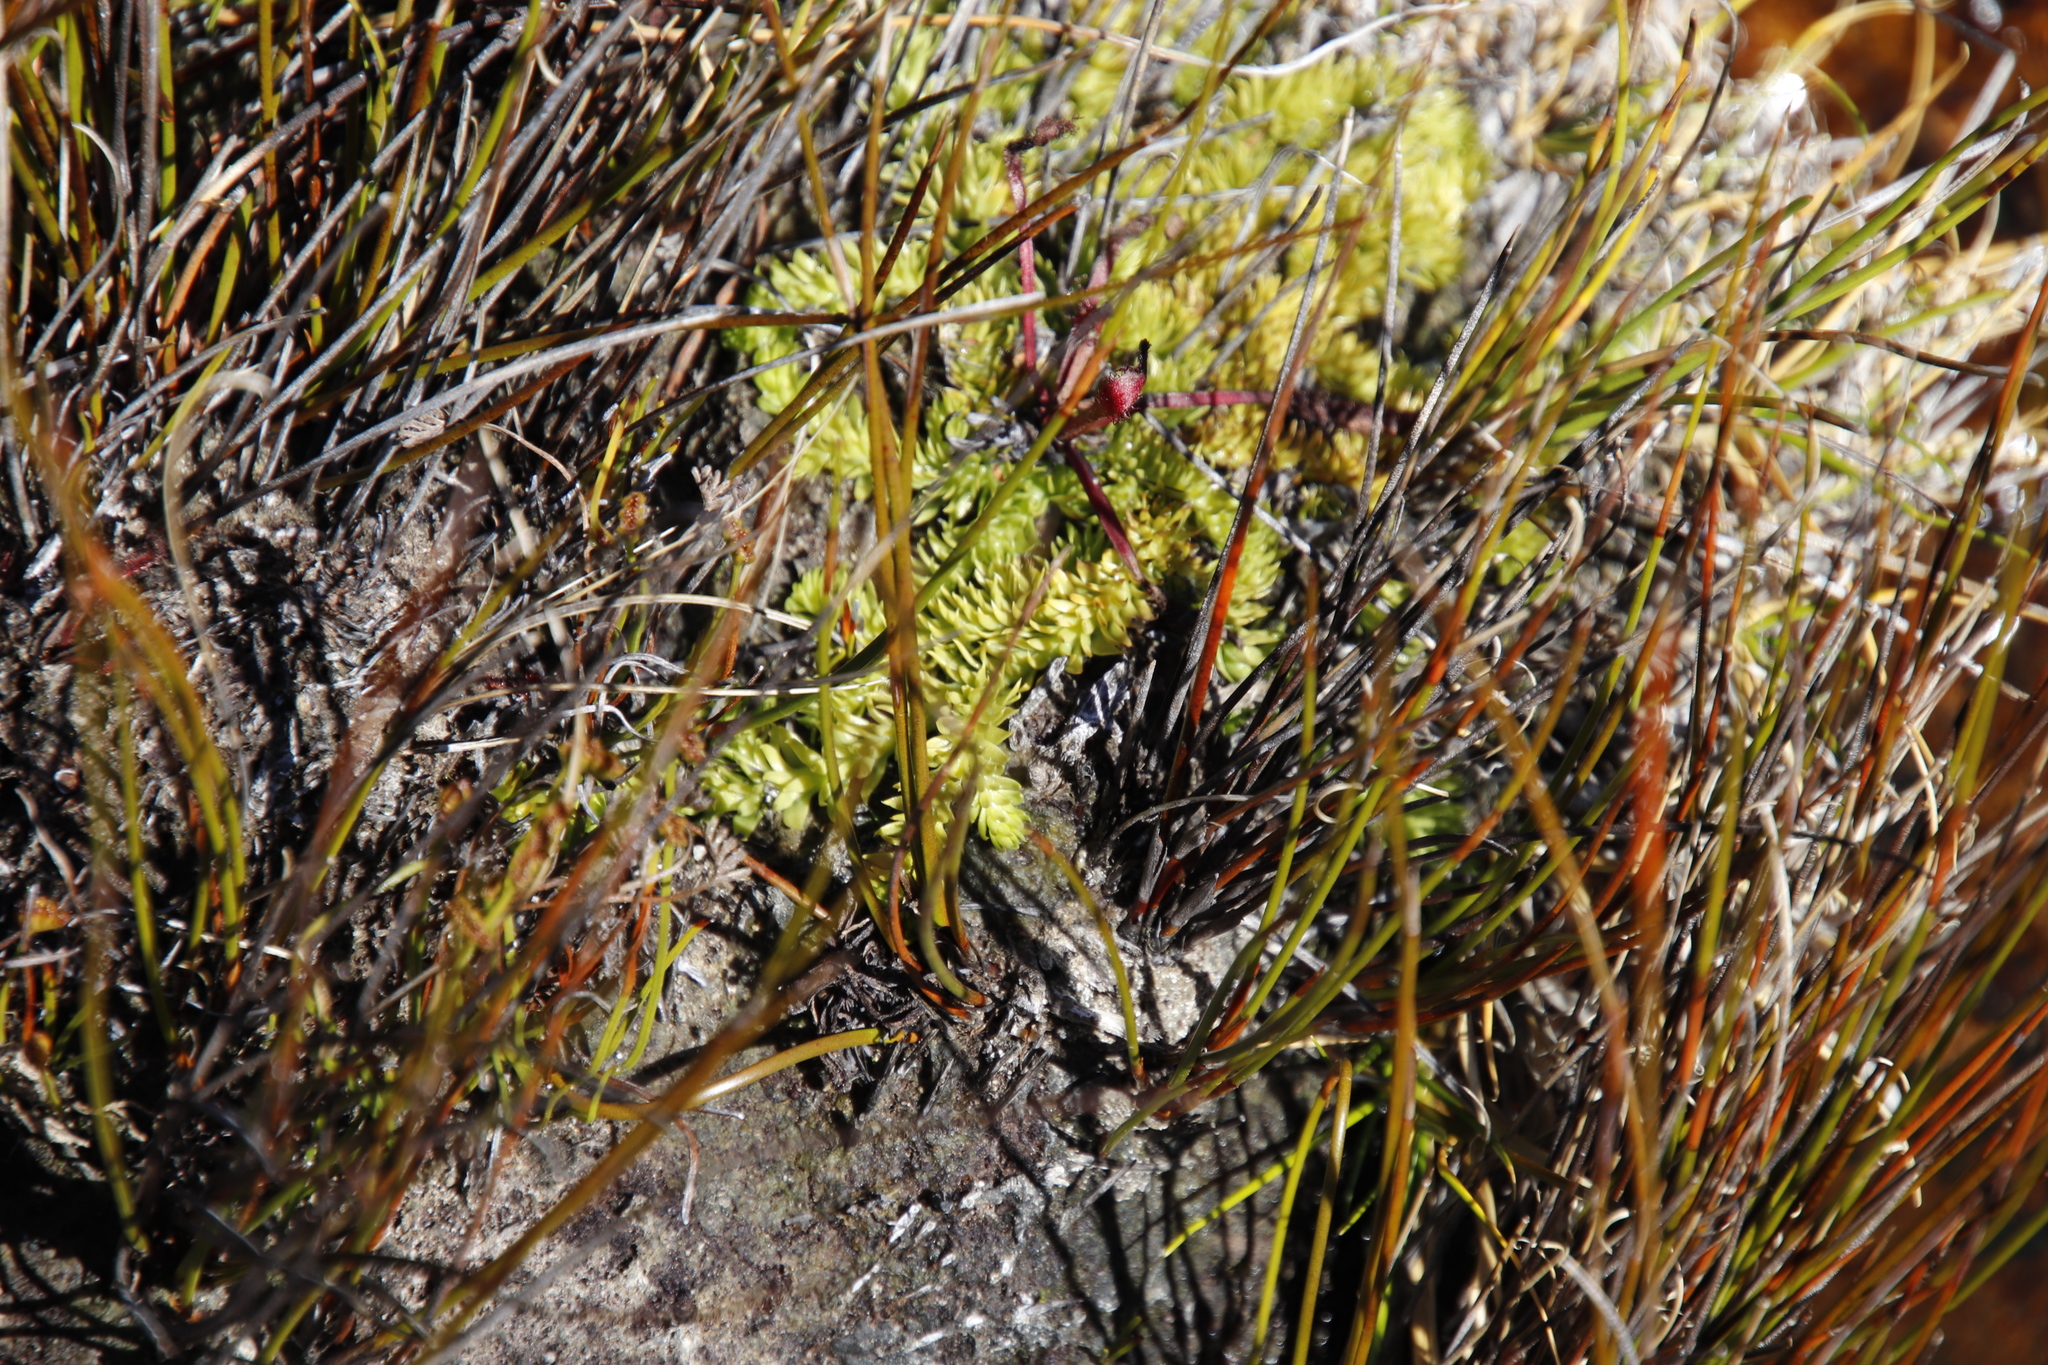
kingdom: Plantae
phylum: Tracheophyta
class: Lycopodiopsida
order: Lycopodiales
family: Lycopodiaceae
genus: Pseudolycopodiella
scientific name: Pseudolycopodiella caroliniana
